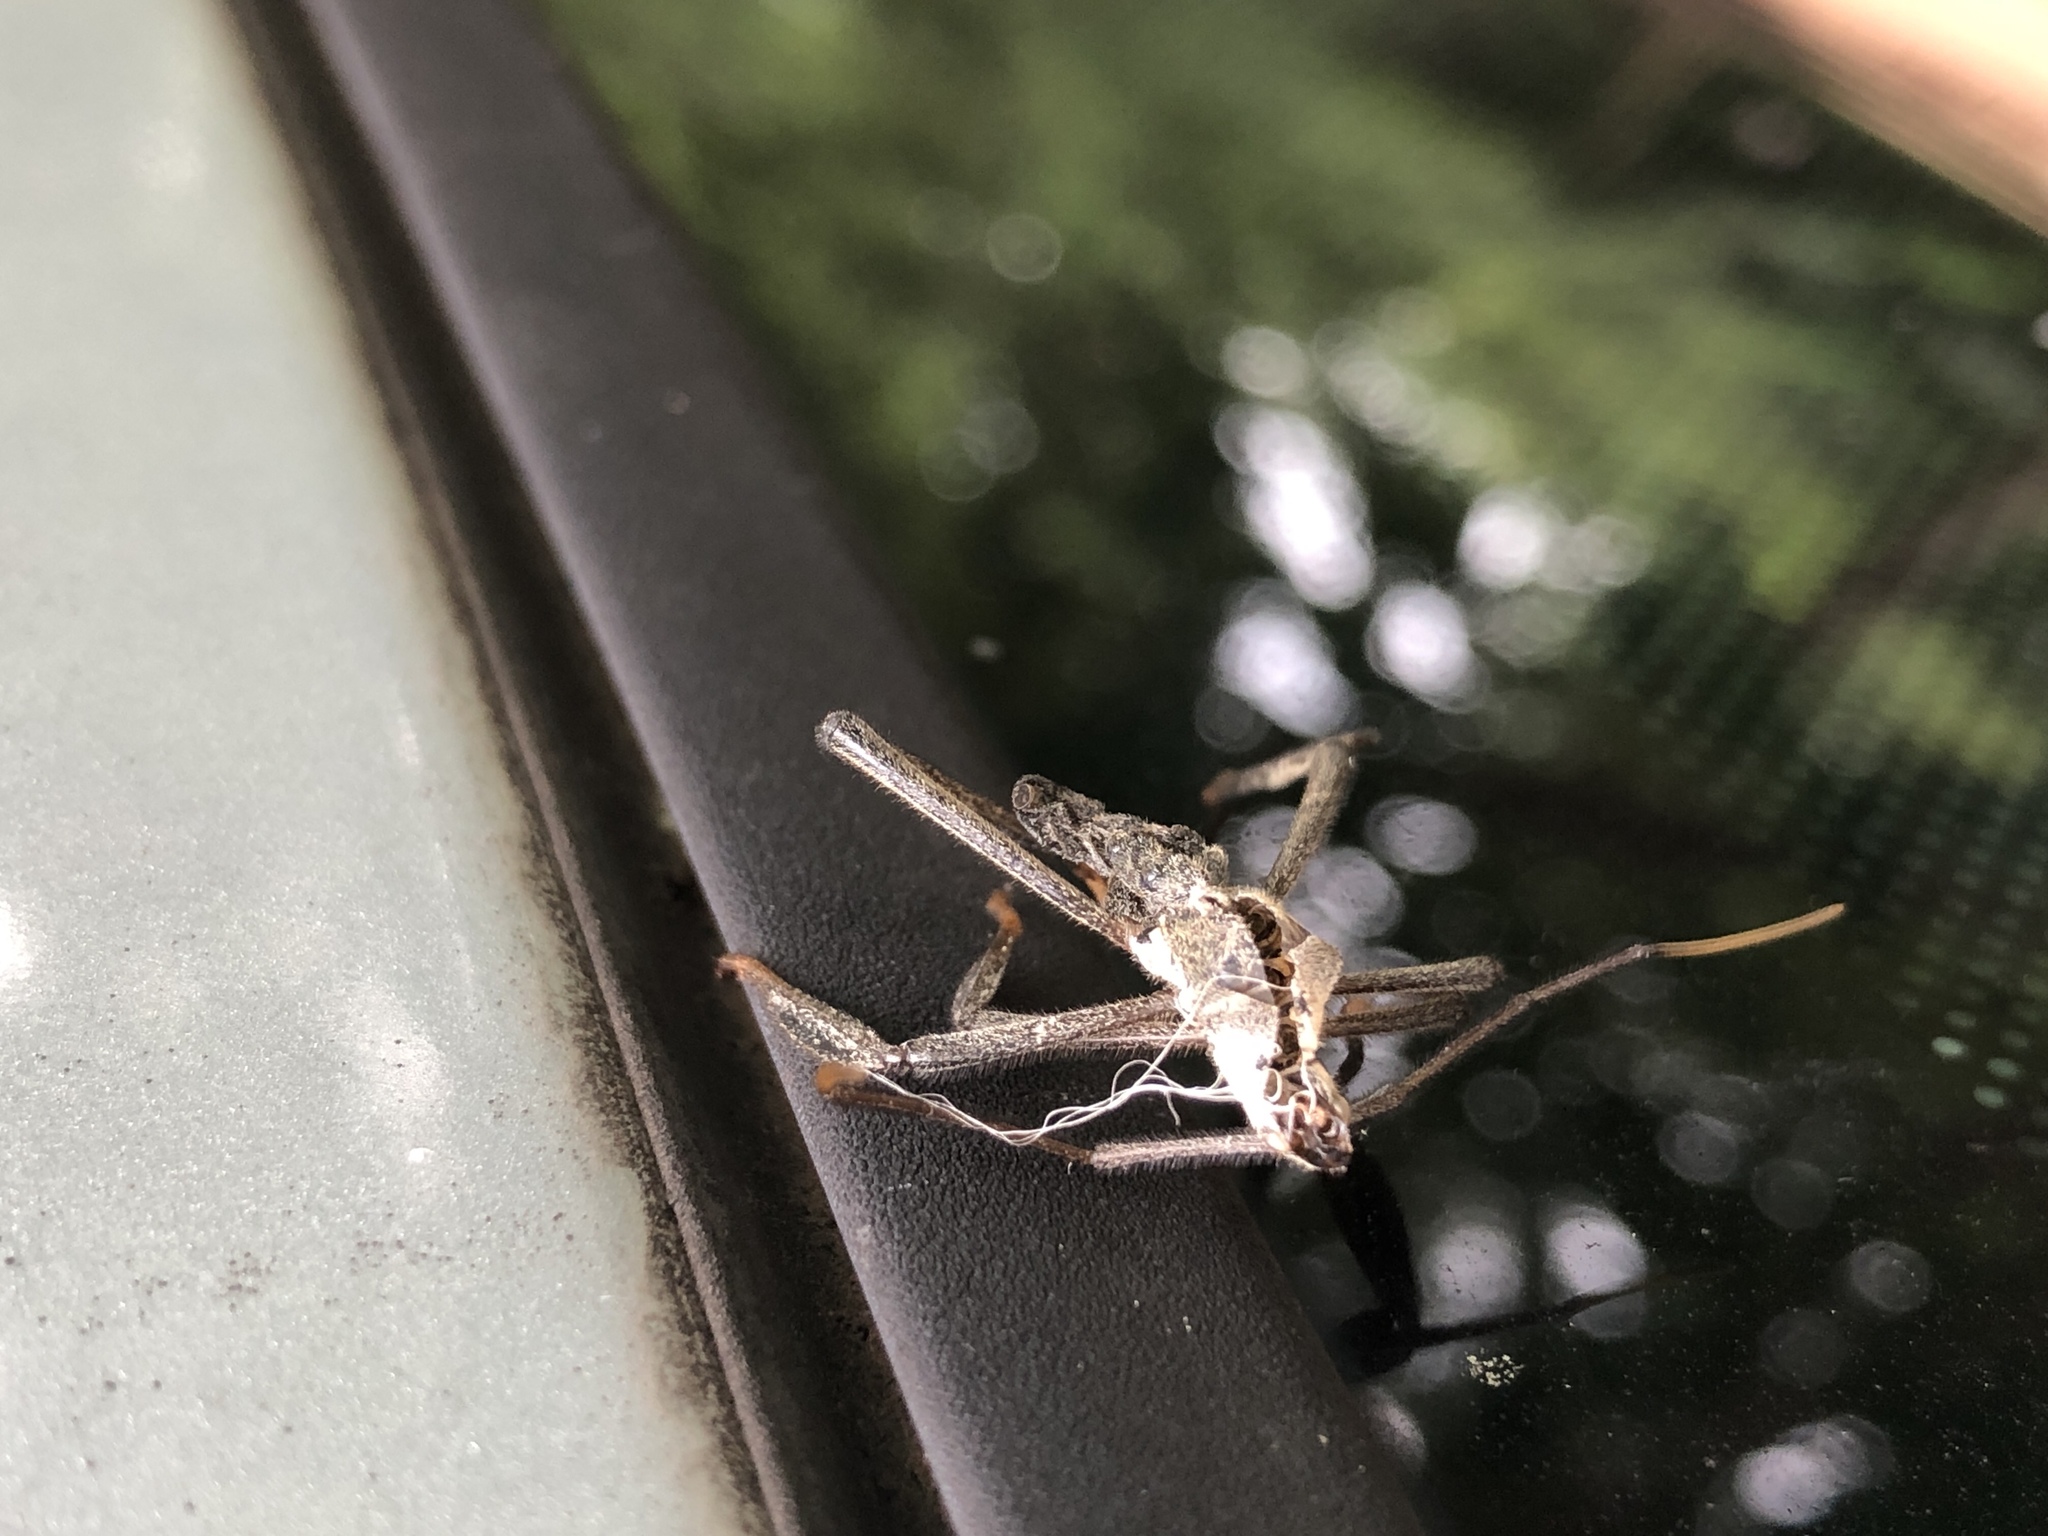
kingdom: Animalia
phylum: Arthropoda
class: Insecta
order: Hemiptera
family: Reduviidae
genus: Arilus
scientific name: Arilus cristatus
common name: North american wheel bug
